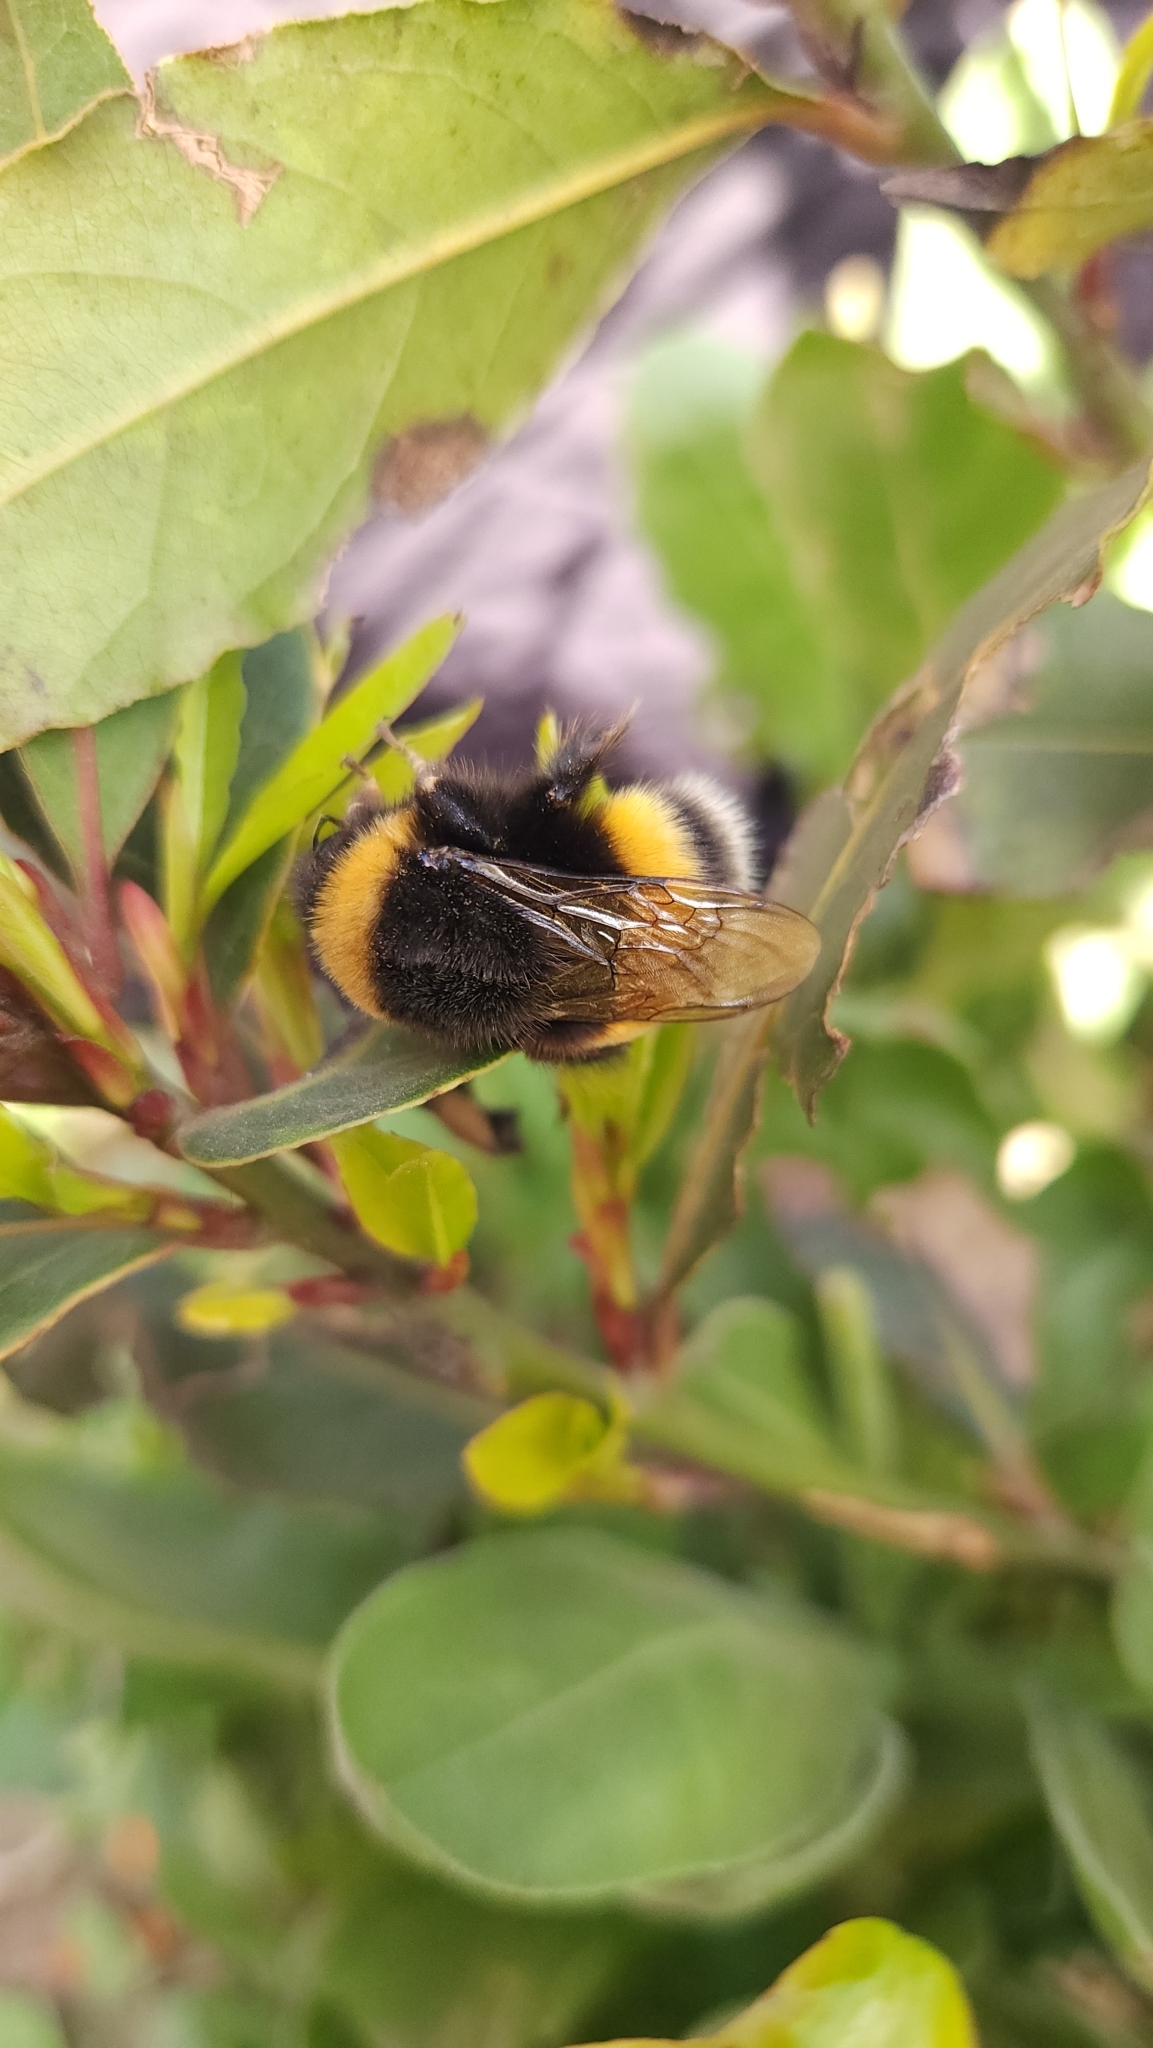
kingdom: Animalia
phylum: Arthropoda
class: Insecta
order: Hymenoptera
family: Apidae
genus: Bombus
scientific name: Bombus terrestris
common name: Buff-tailed bumblebee
